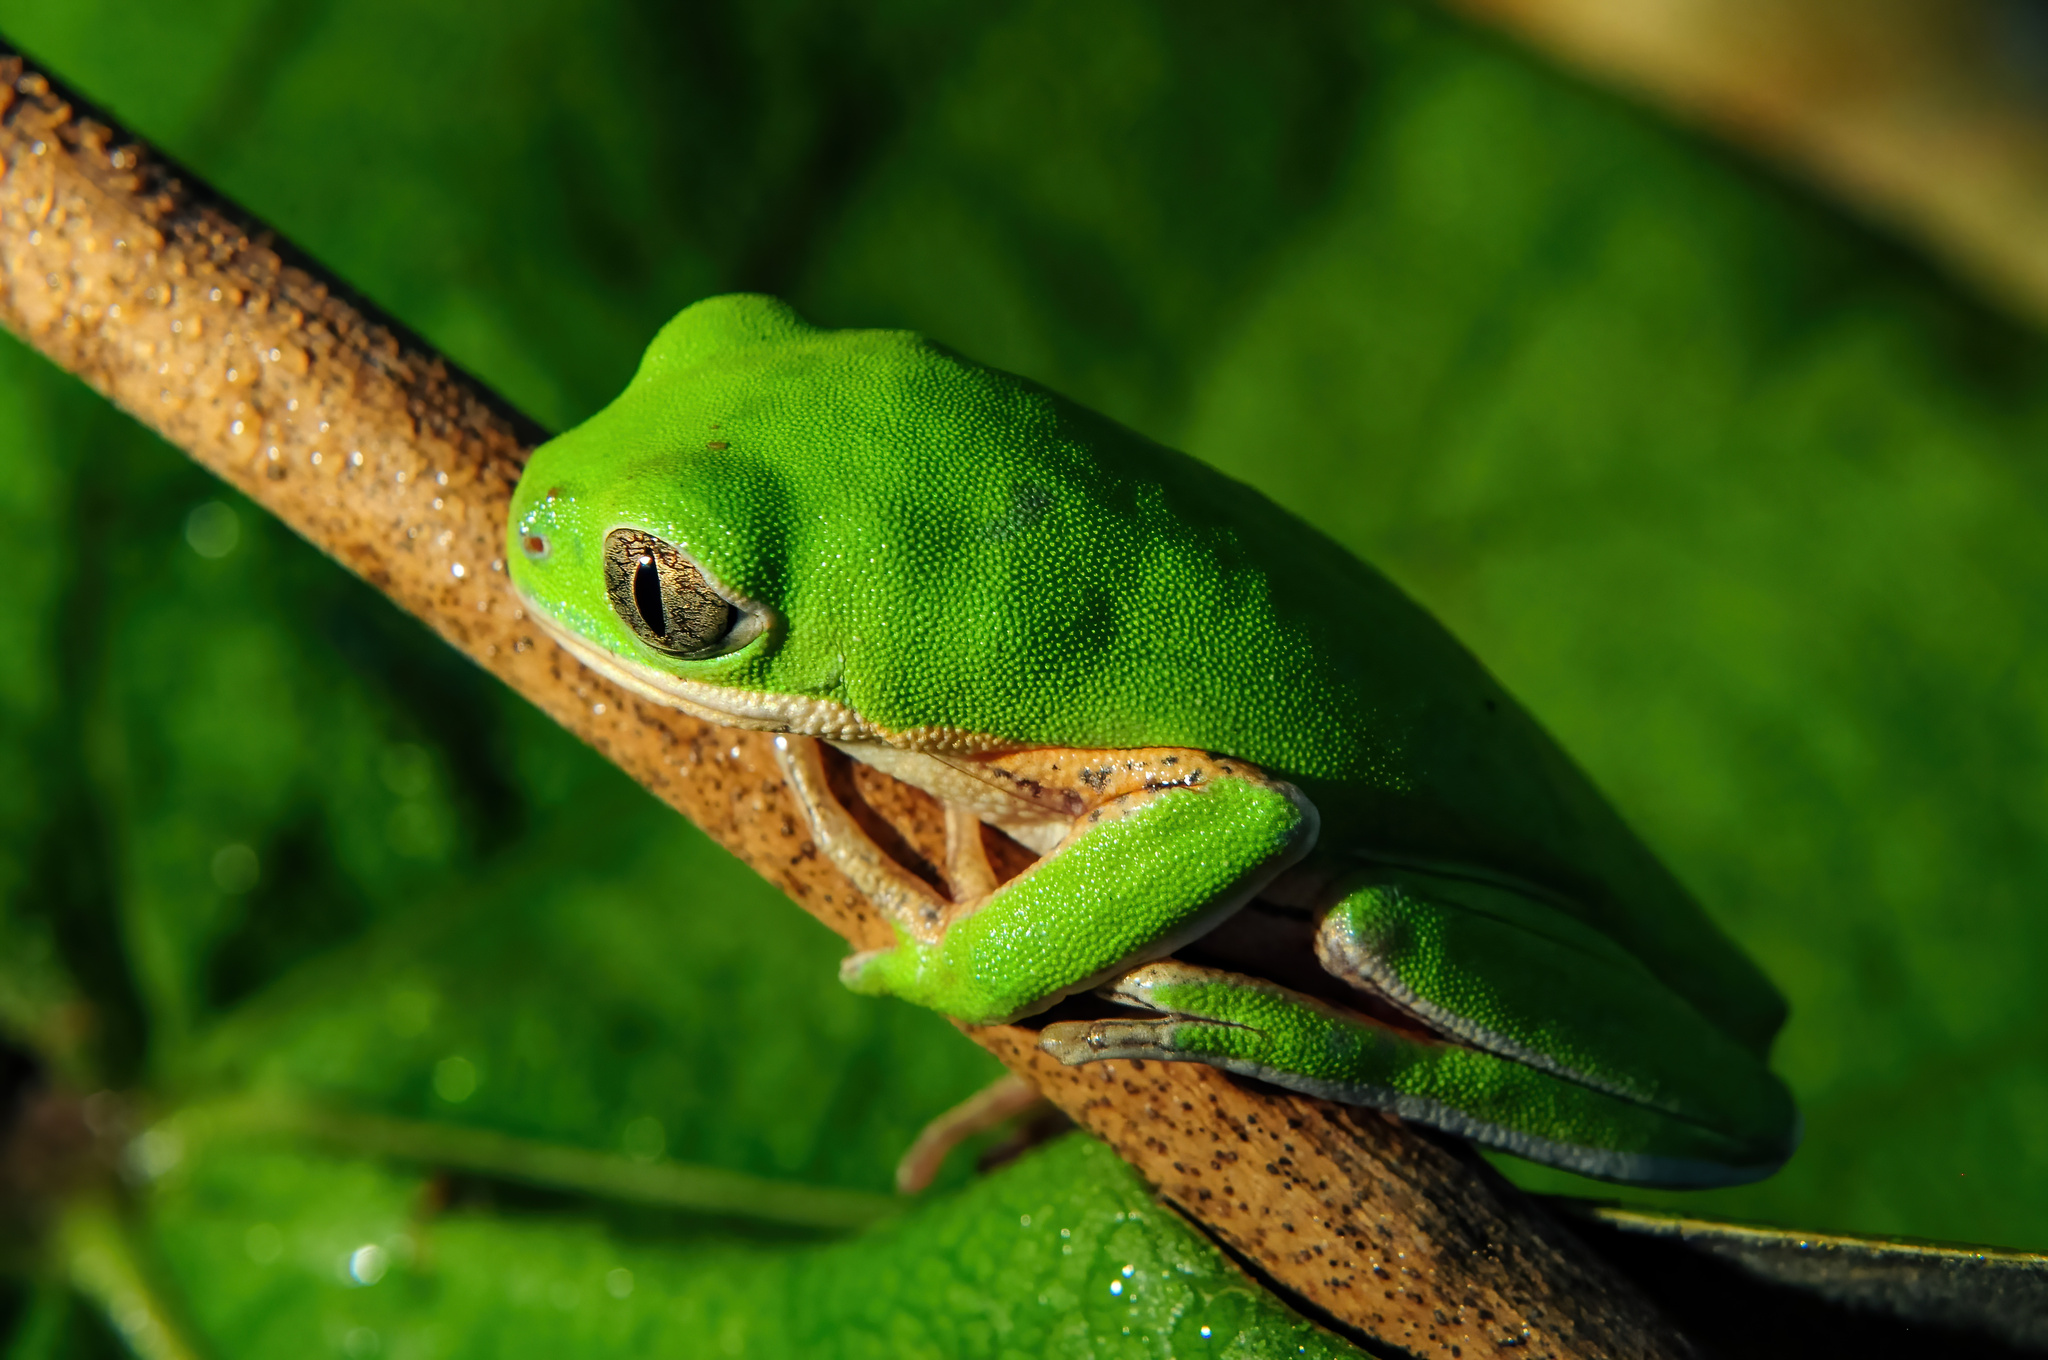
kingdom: Animalia
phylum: Chordata
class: Amphibia
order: Anura
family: Phyllomedusidae
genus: Pithecopus
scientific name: Pithecopus azureus
